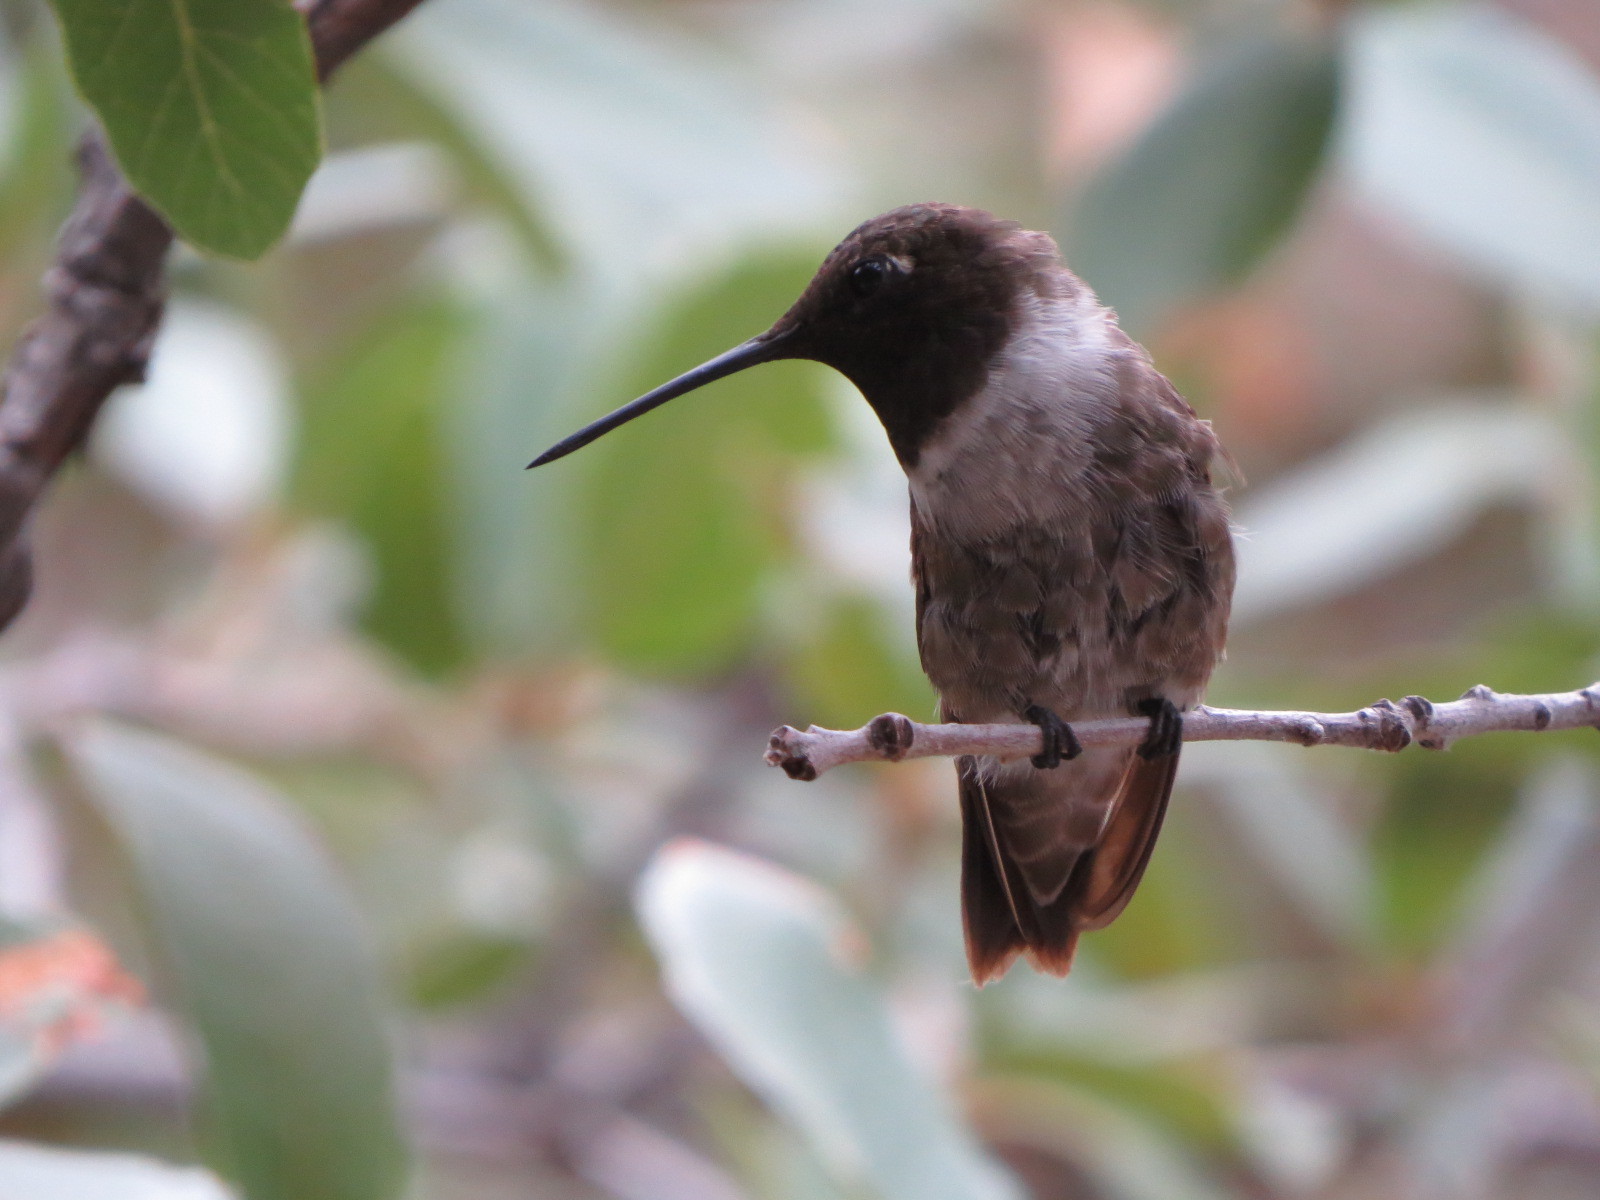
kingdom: Animalia
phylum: Chordata
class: Aves
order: Apodiformes
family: Trochilidae
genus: Archilochus
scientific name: Archilochus alexandri
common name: Black-chinned hummingbird
